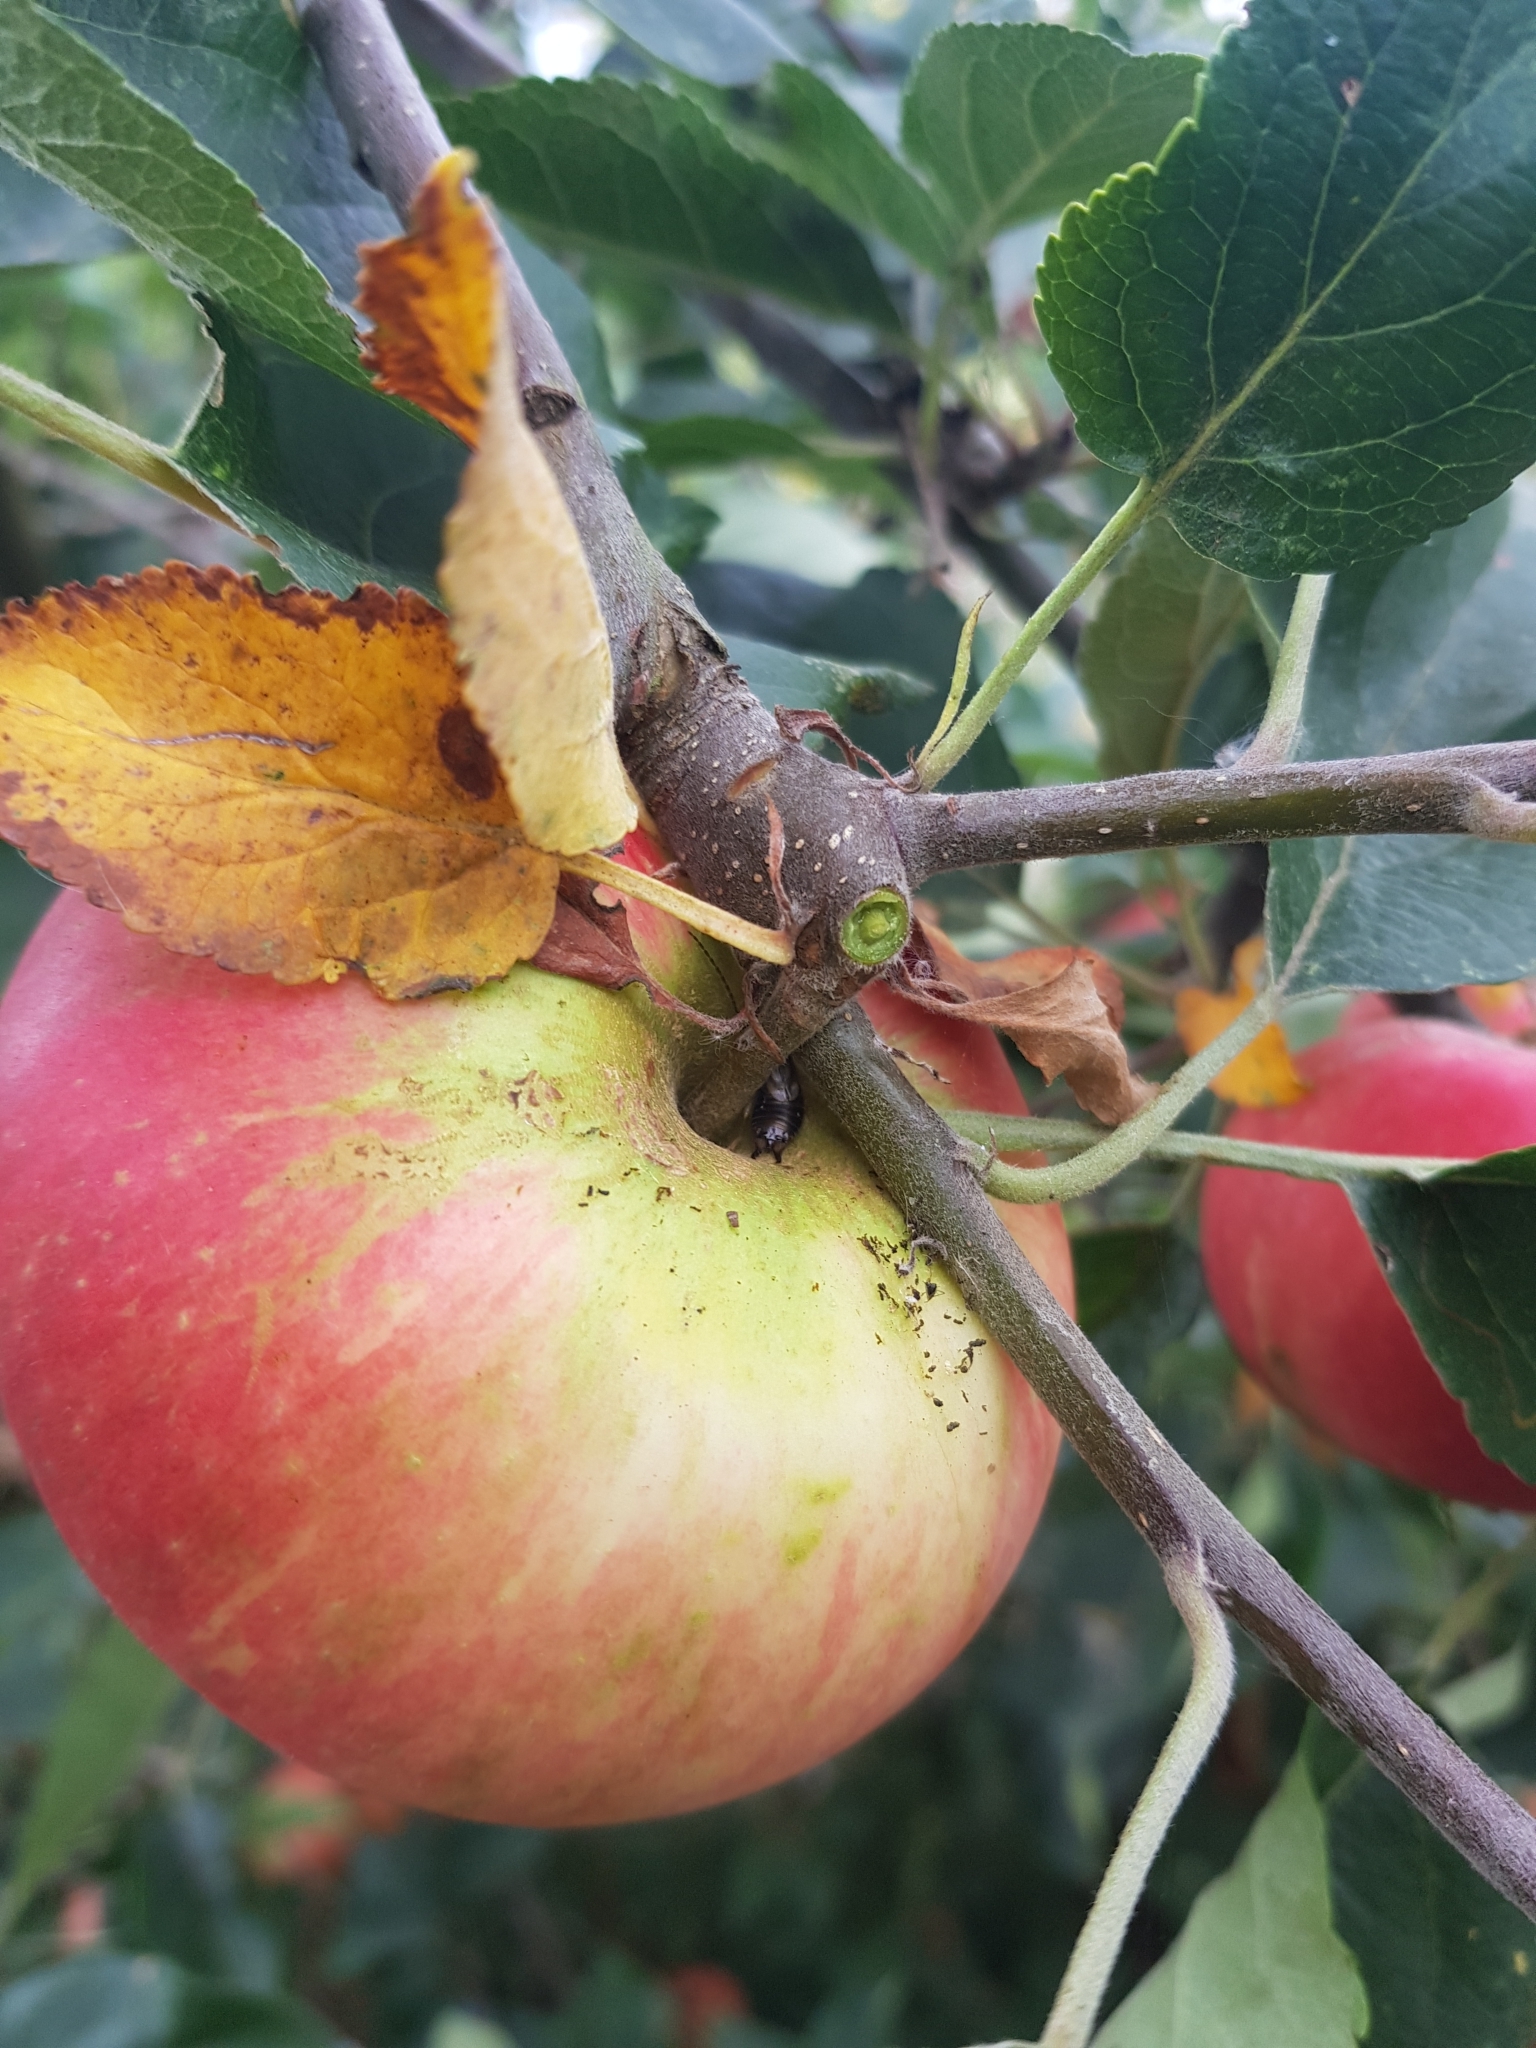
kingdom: Animalia
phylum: Arthropoda
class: Insecta
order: Dermaptera
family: Forficulidae
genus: Forficula
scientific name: Forficula
